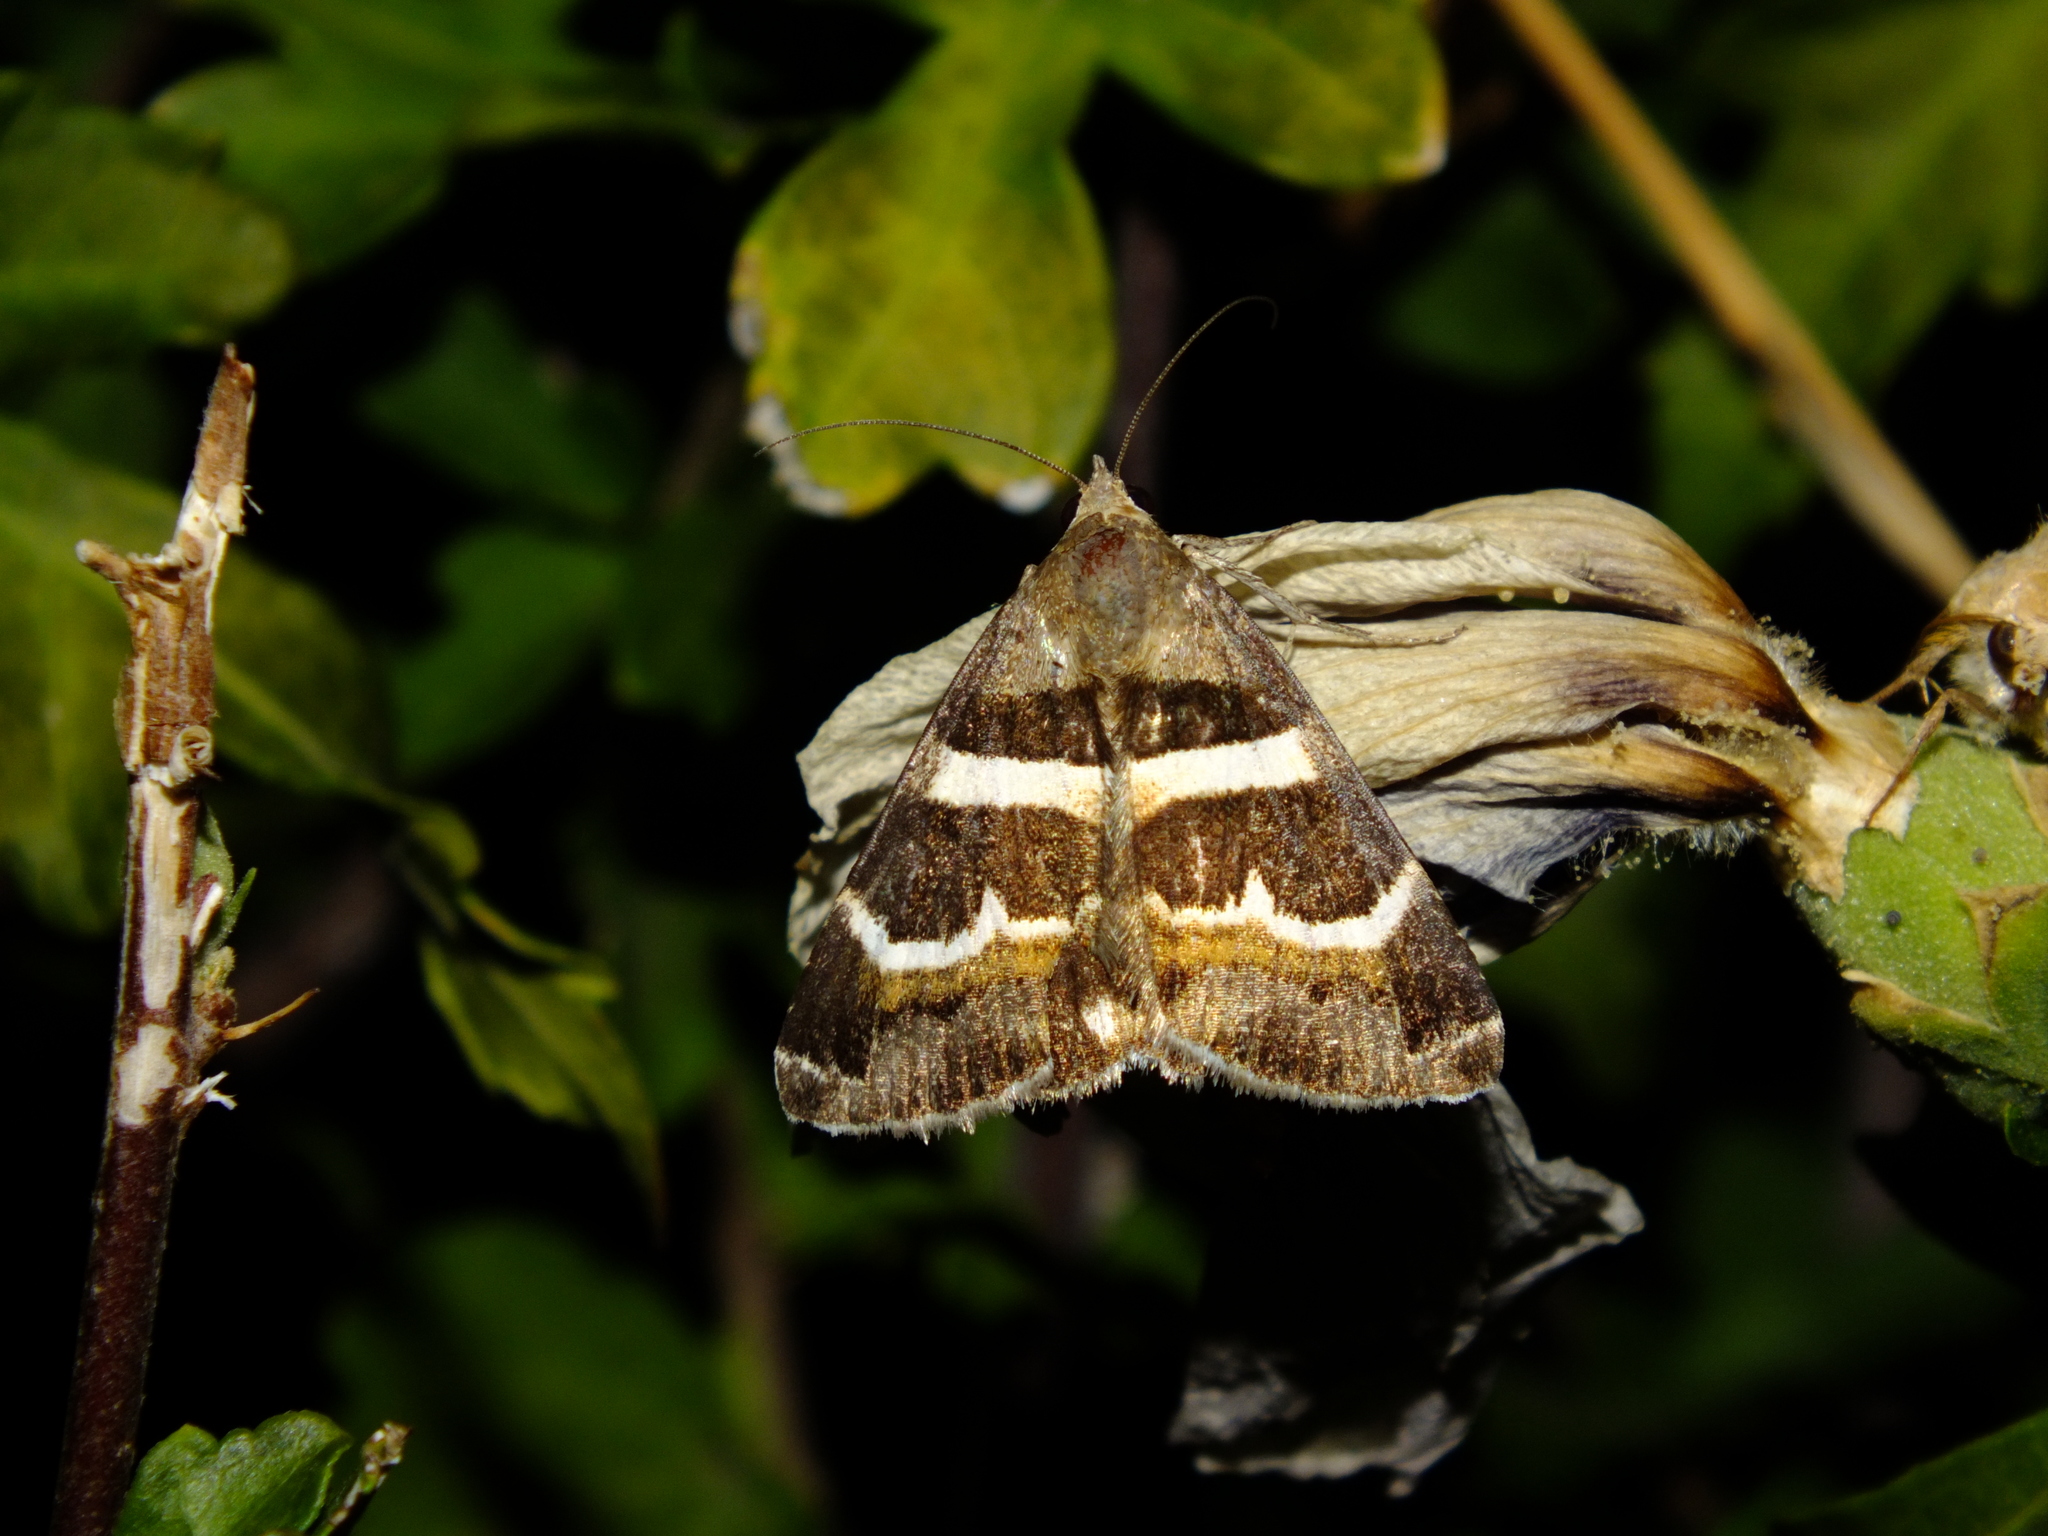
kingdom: Animalia
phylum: Arthropoda
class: Insecta
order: Lepidoptera
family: Erebidae
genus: Grammodes
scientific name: Grammodes stolida
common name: Geometrician
